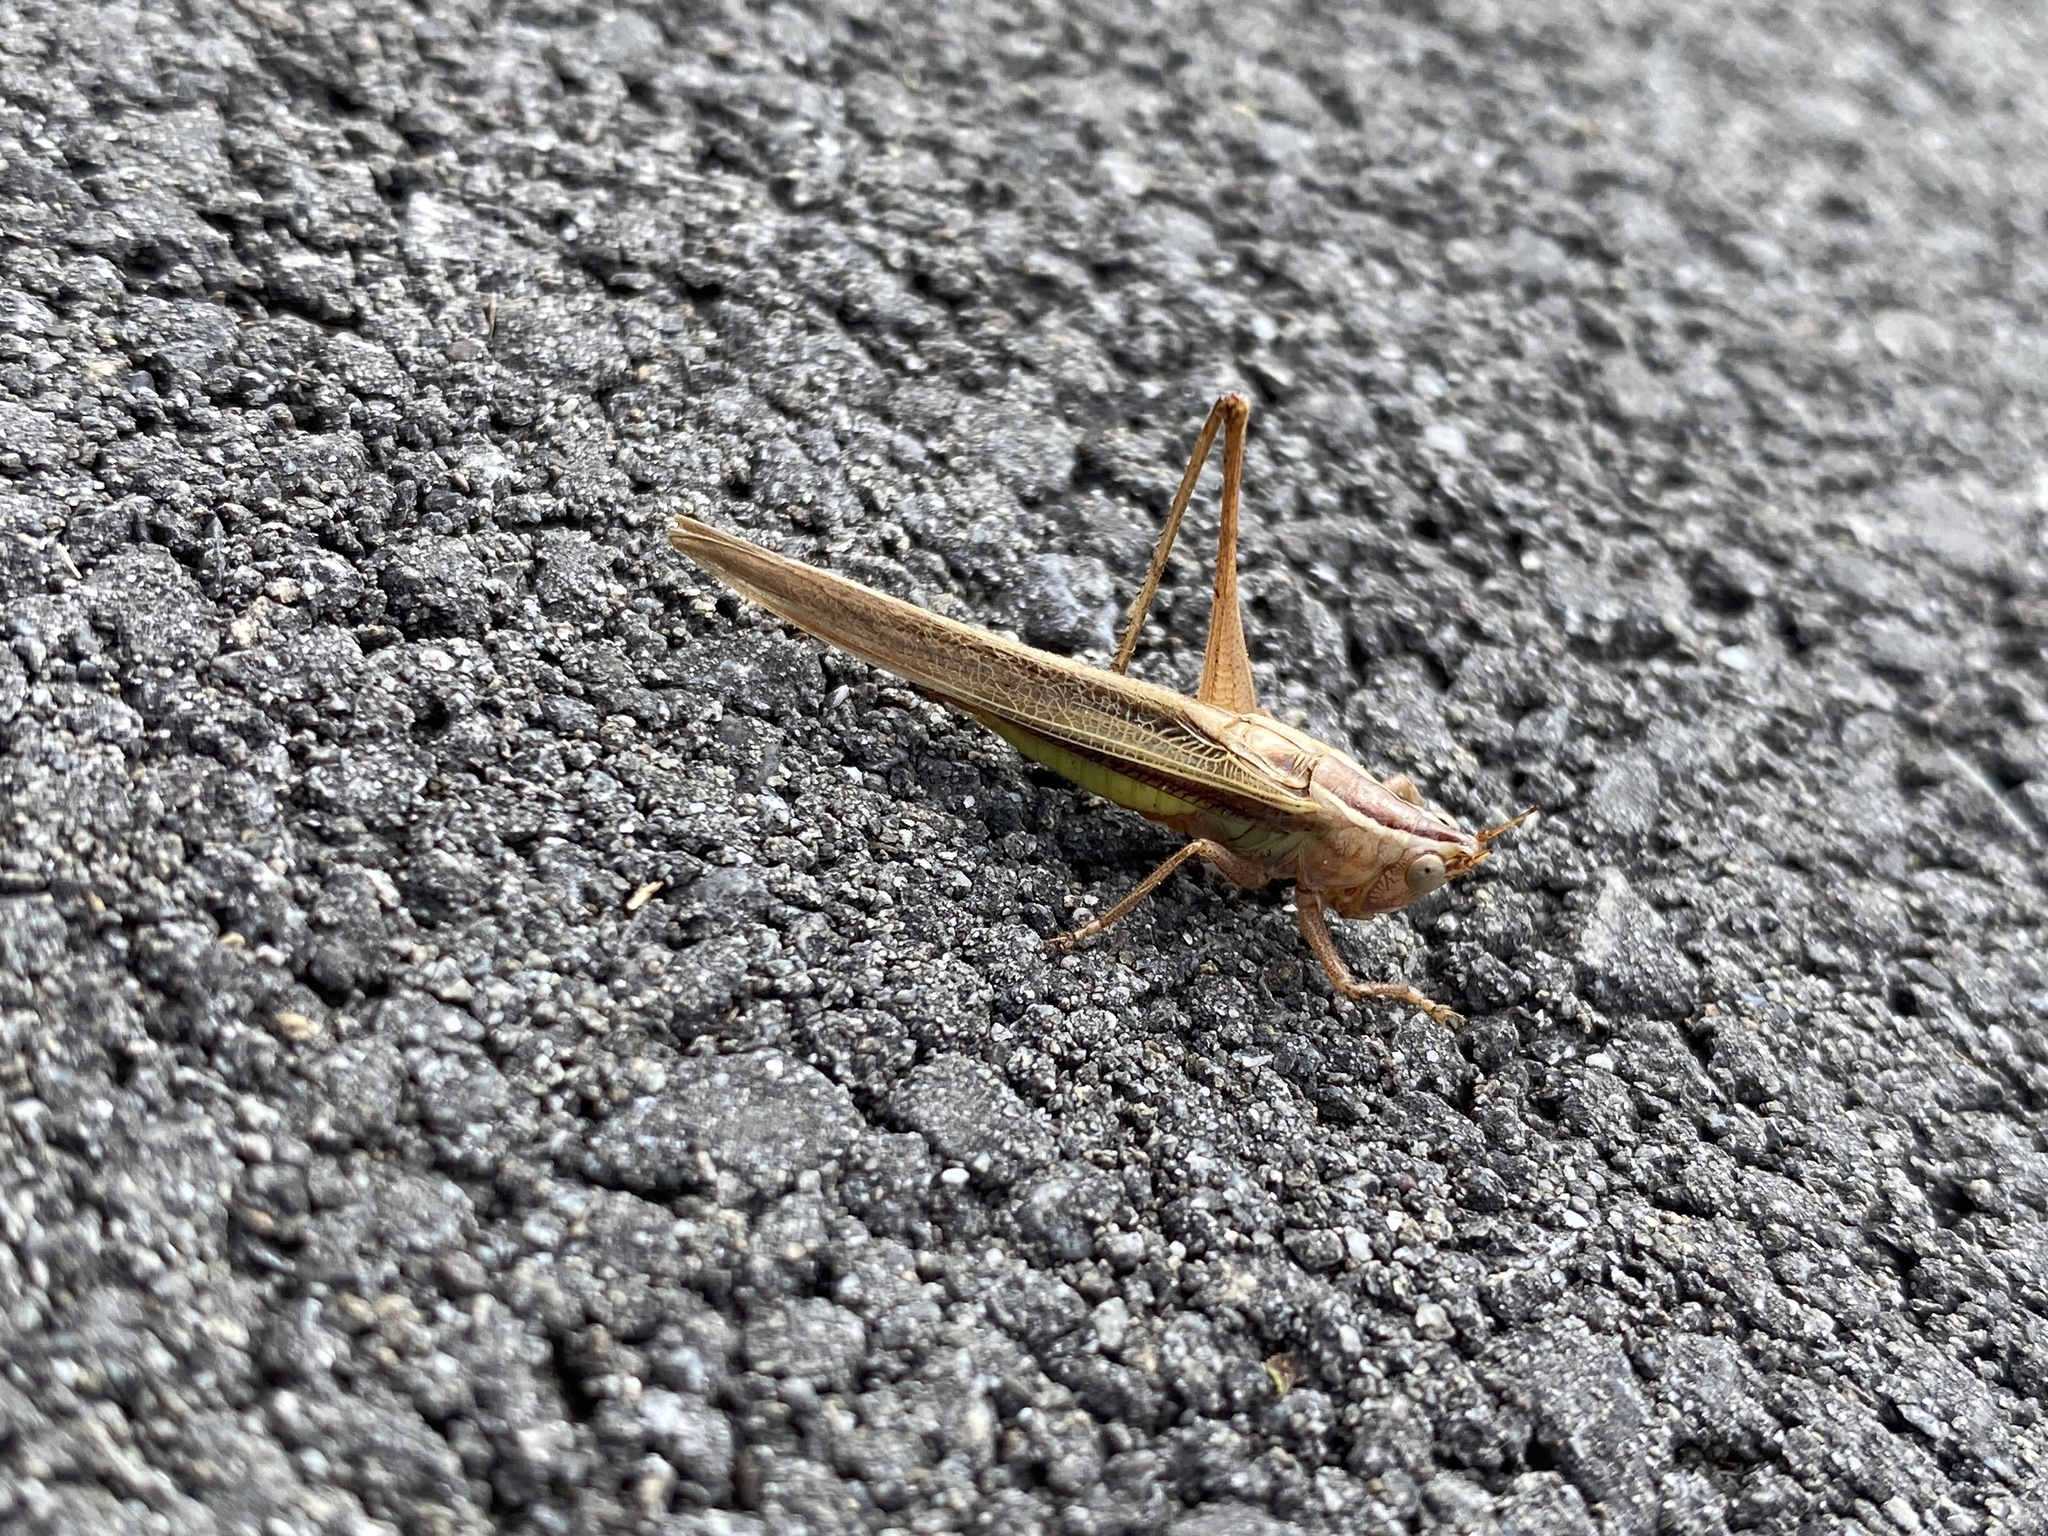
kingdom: Animalia
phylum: Arthropoda
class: Insecta
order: Orthoptera
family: Tettigoniidae
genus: Conocephalus
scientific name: Conocephalus albescens
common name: Whitish meadow katydid
